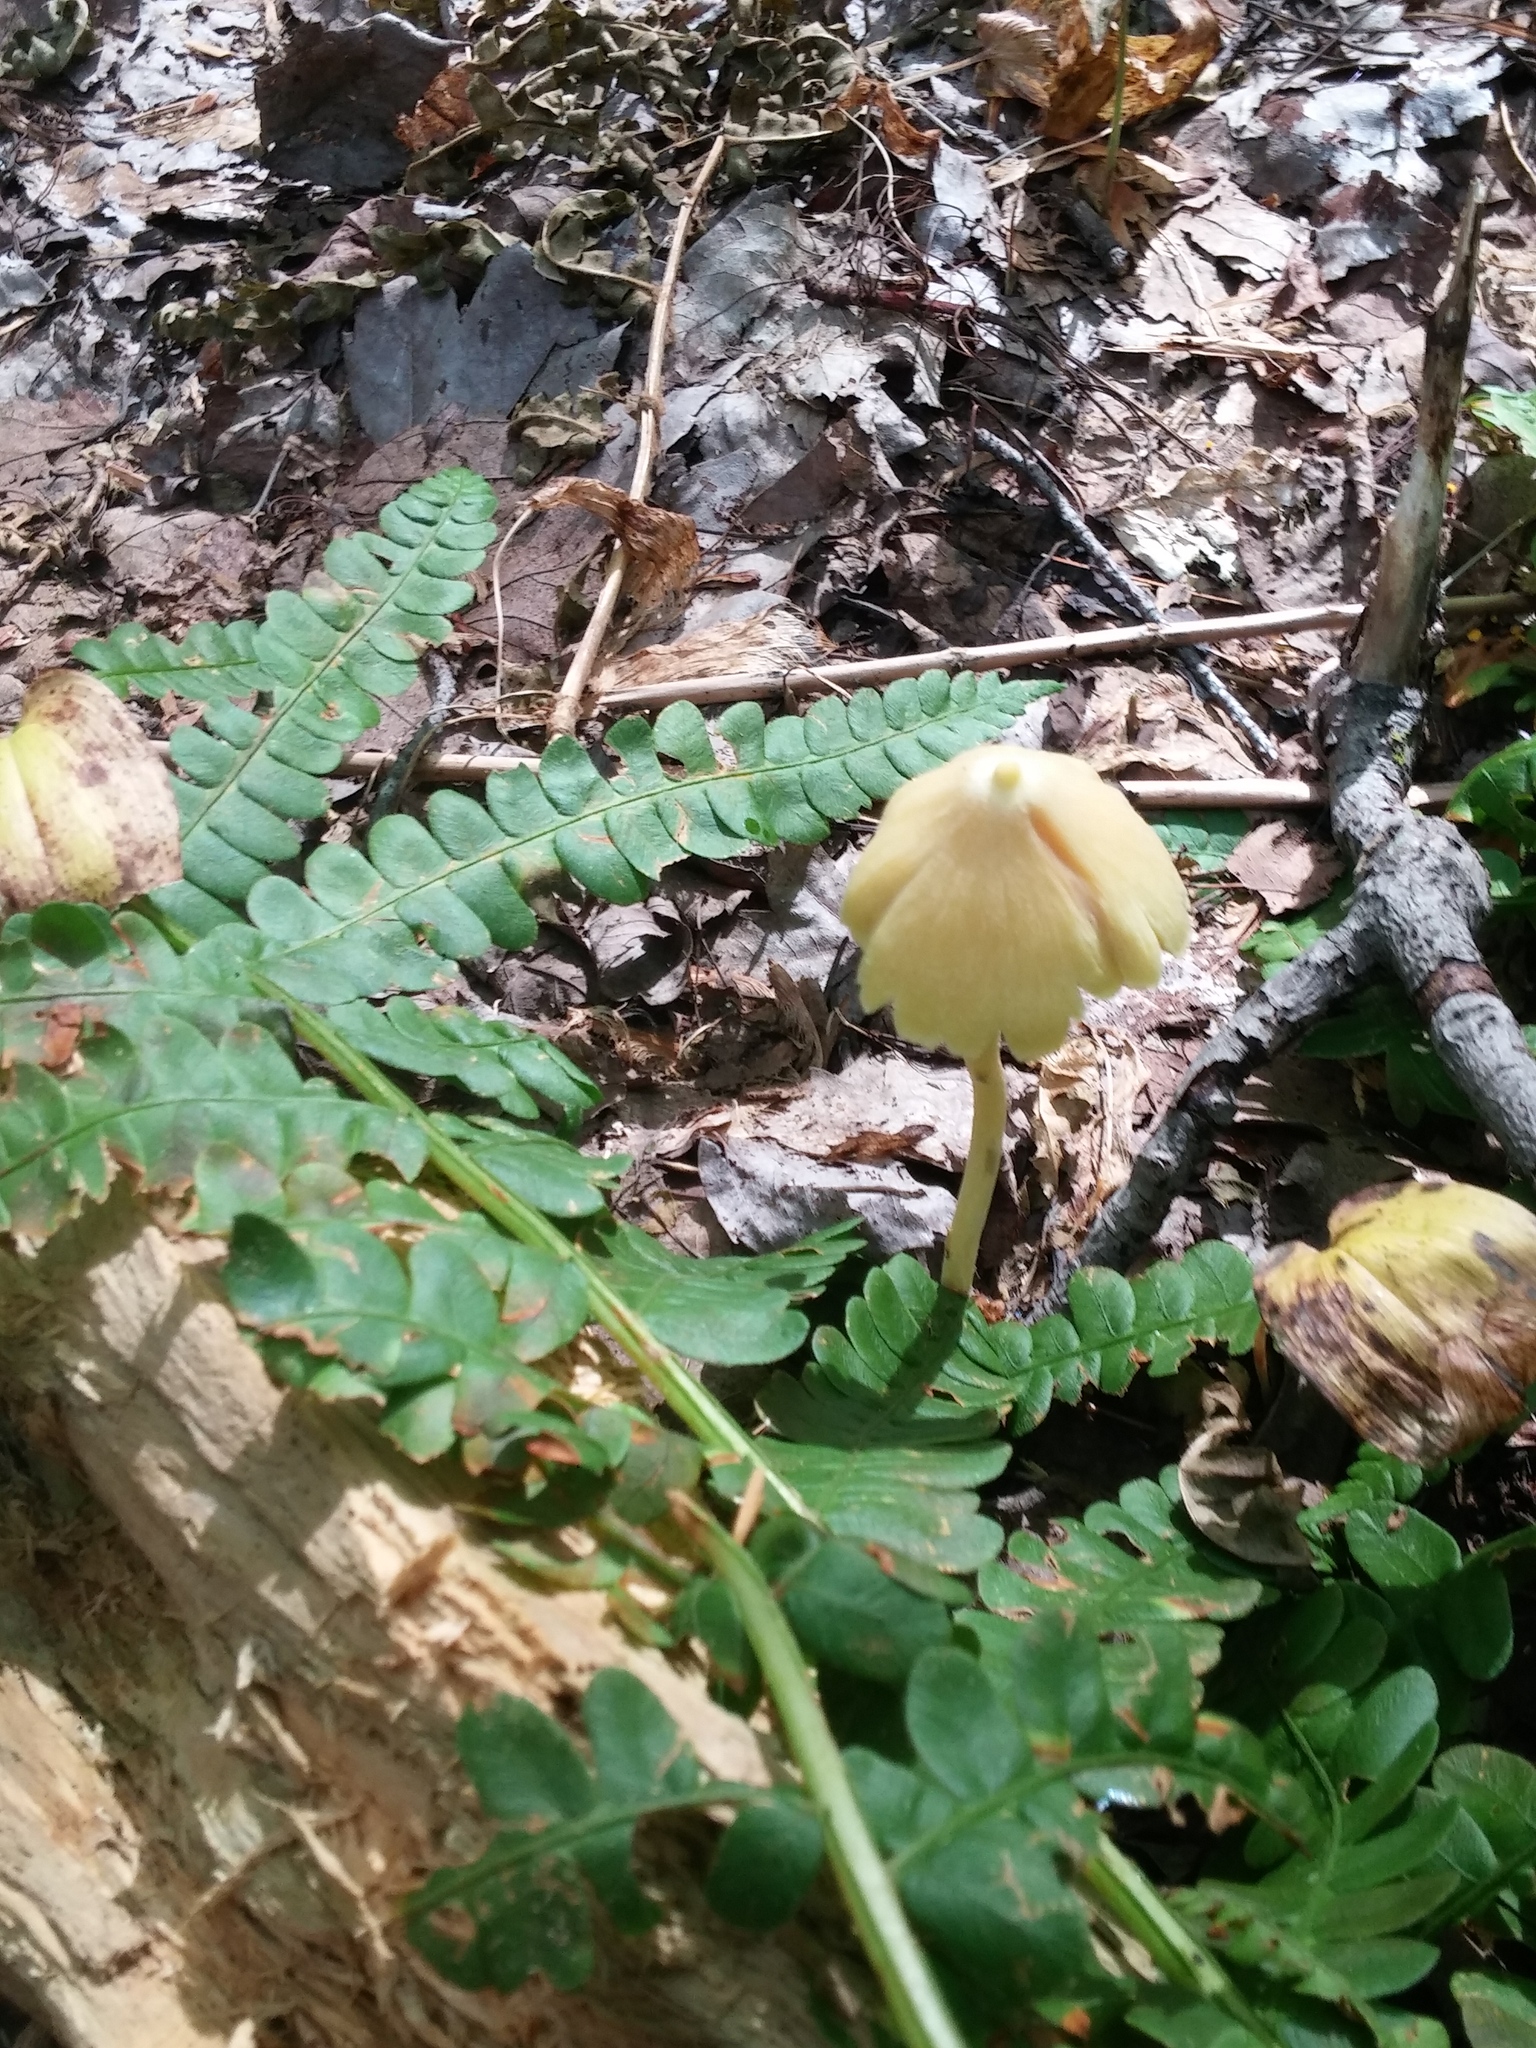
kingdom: Fungi
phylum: Basidiomycota
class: Agaricomycetes
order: Agaricales
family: Entolomataceae
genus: Entoloma
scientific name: Entoloma murrayi
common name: Yellow unicorn entoloma
